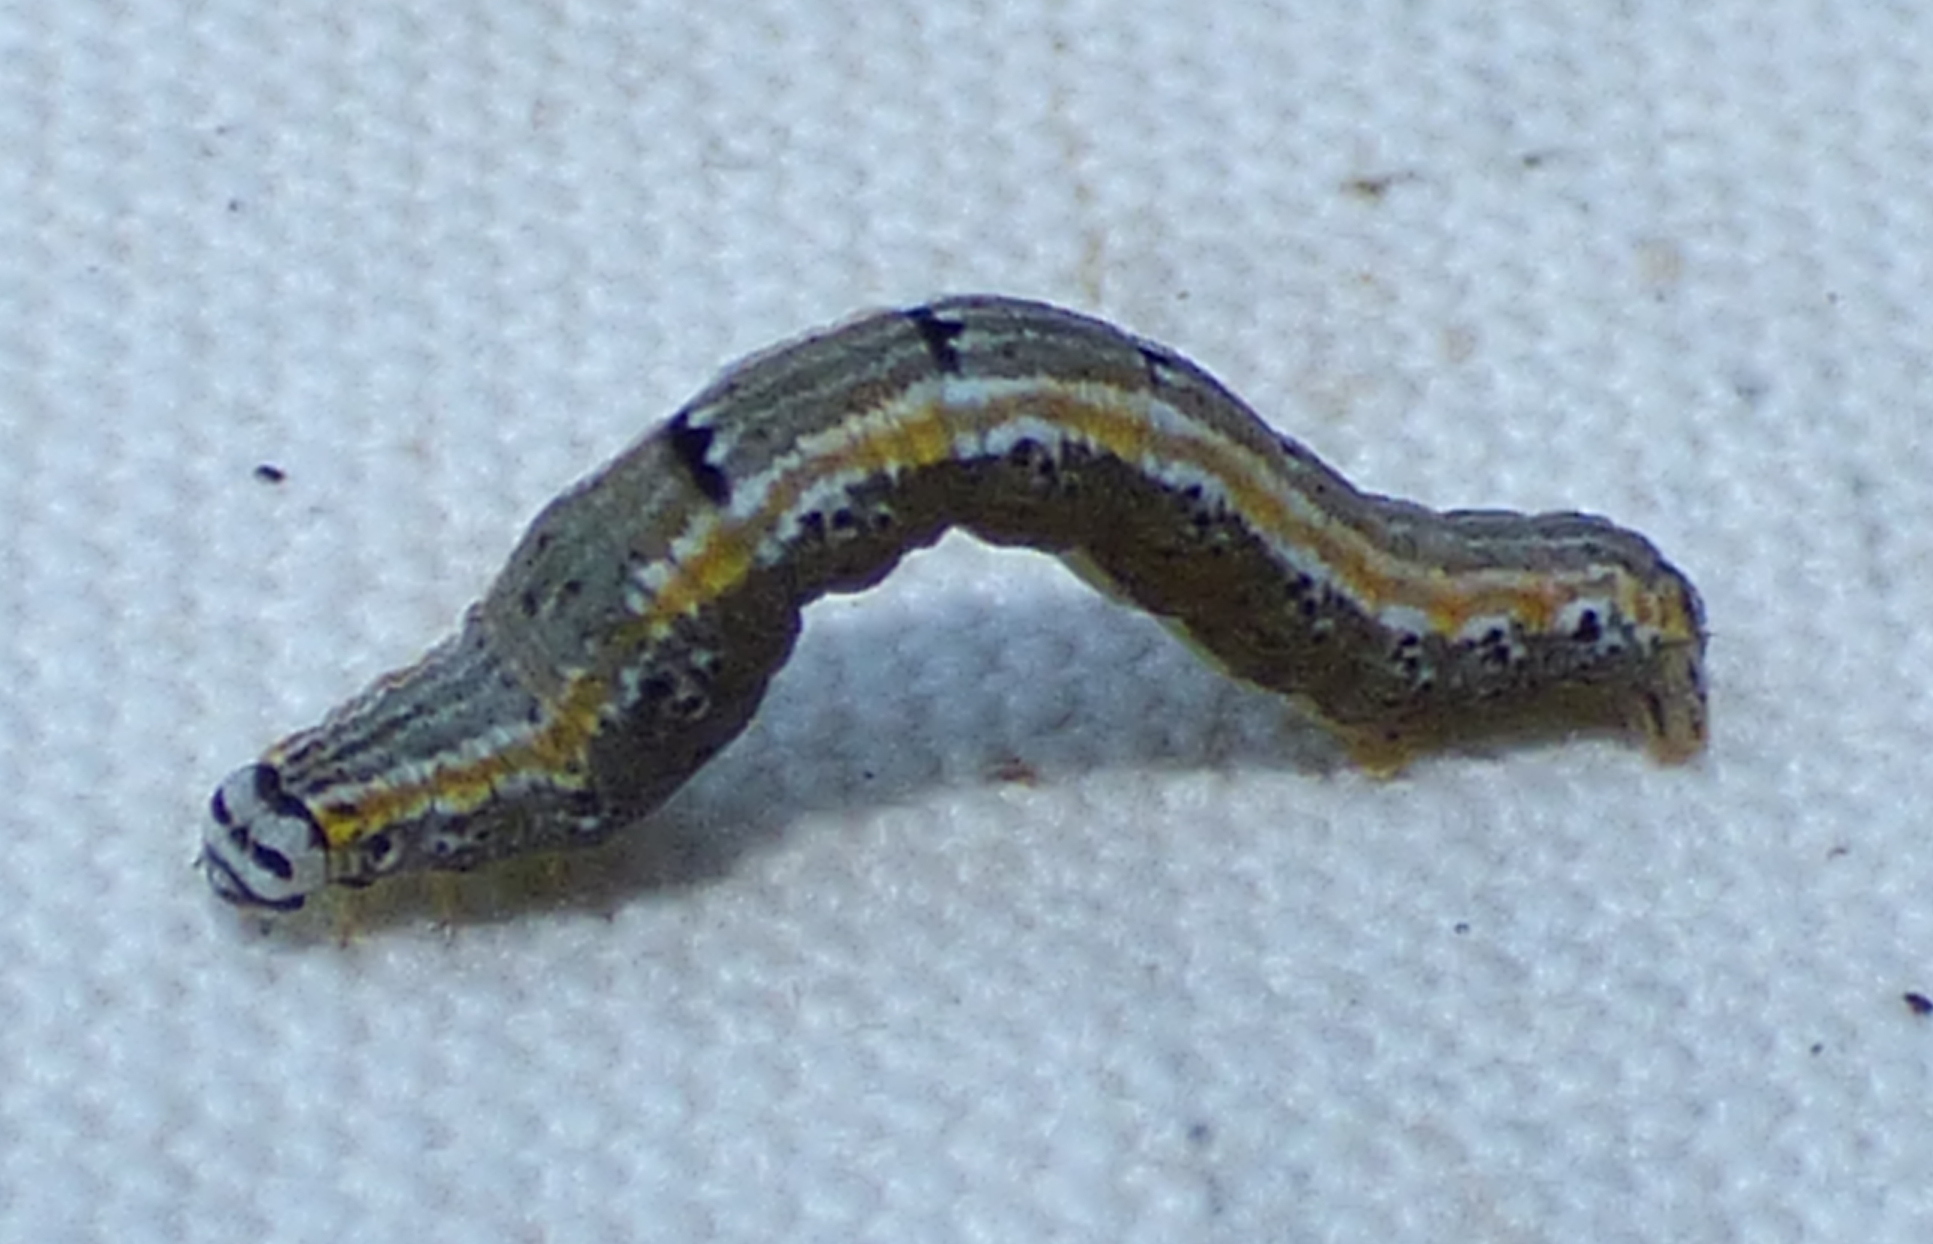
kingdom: Animalia
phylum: Arthropoda
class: Insecta
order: Lepidoptera
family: Geometridae
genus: Episemasia
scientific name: Episemasia solitaria
